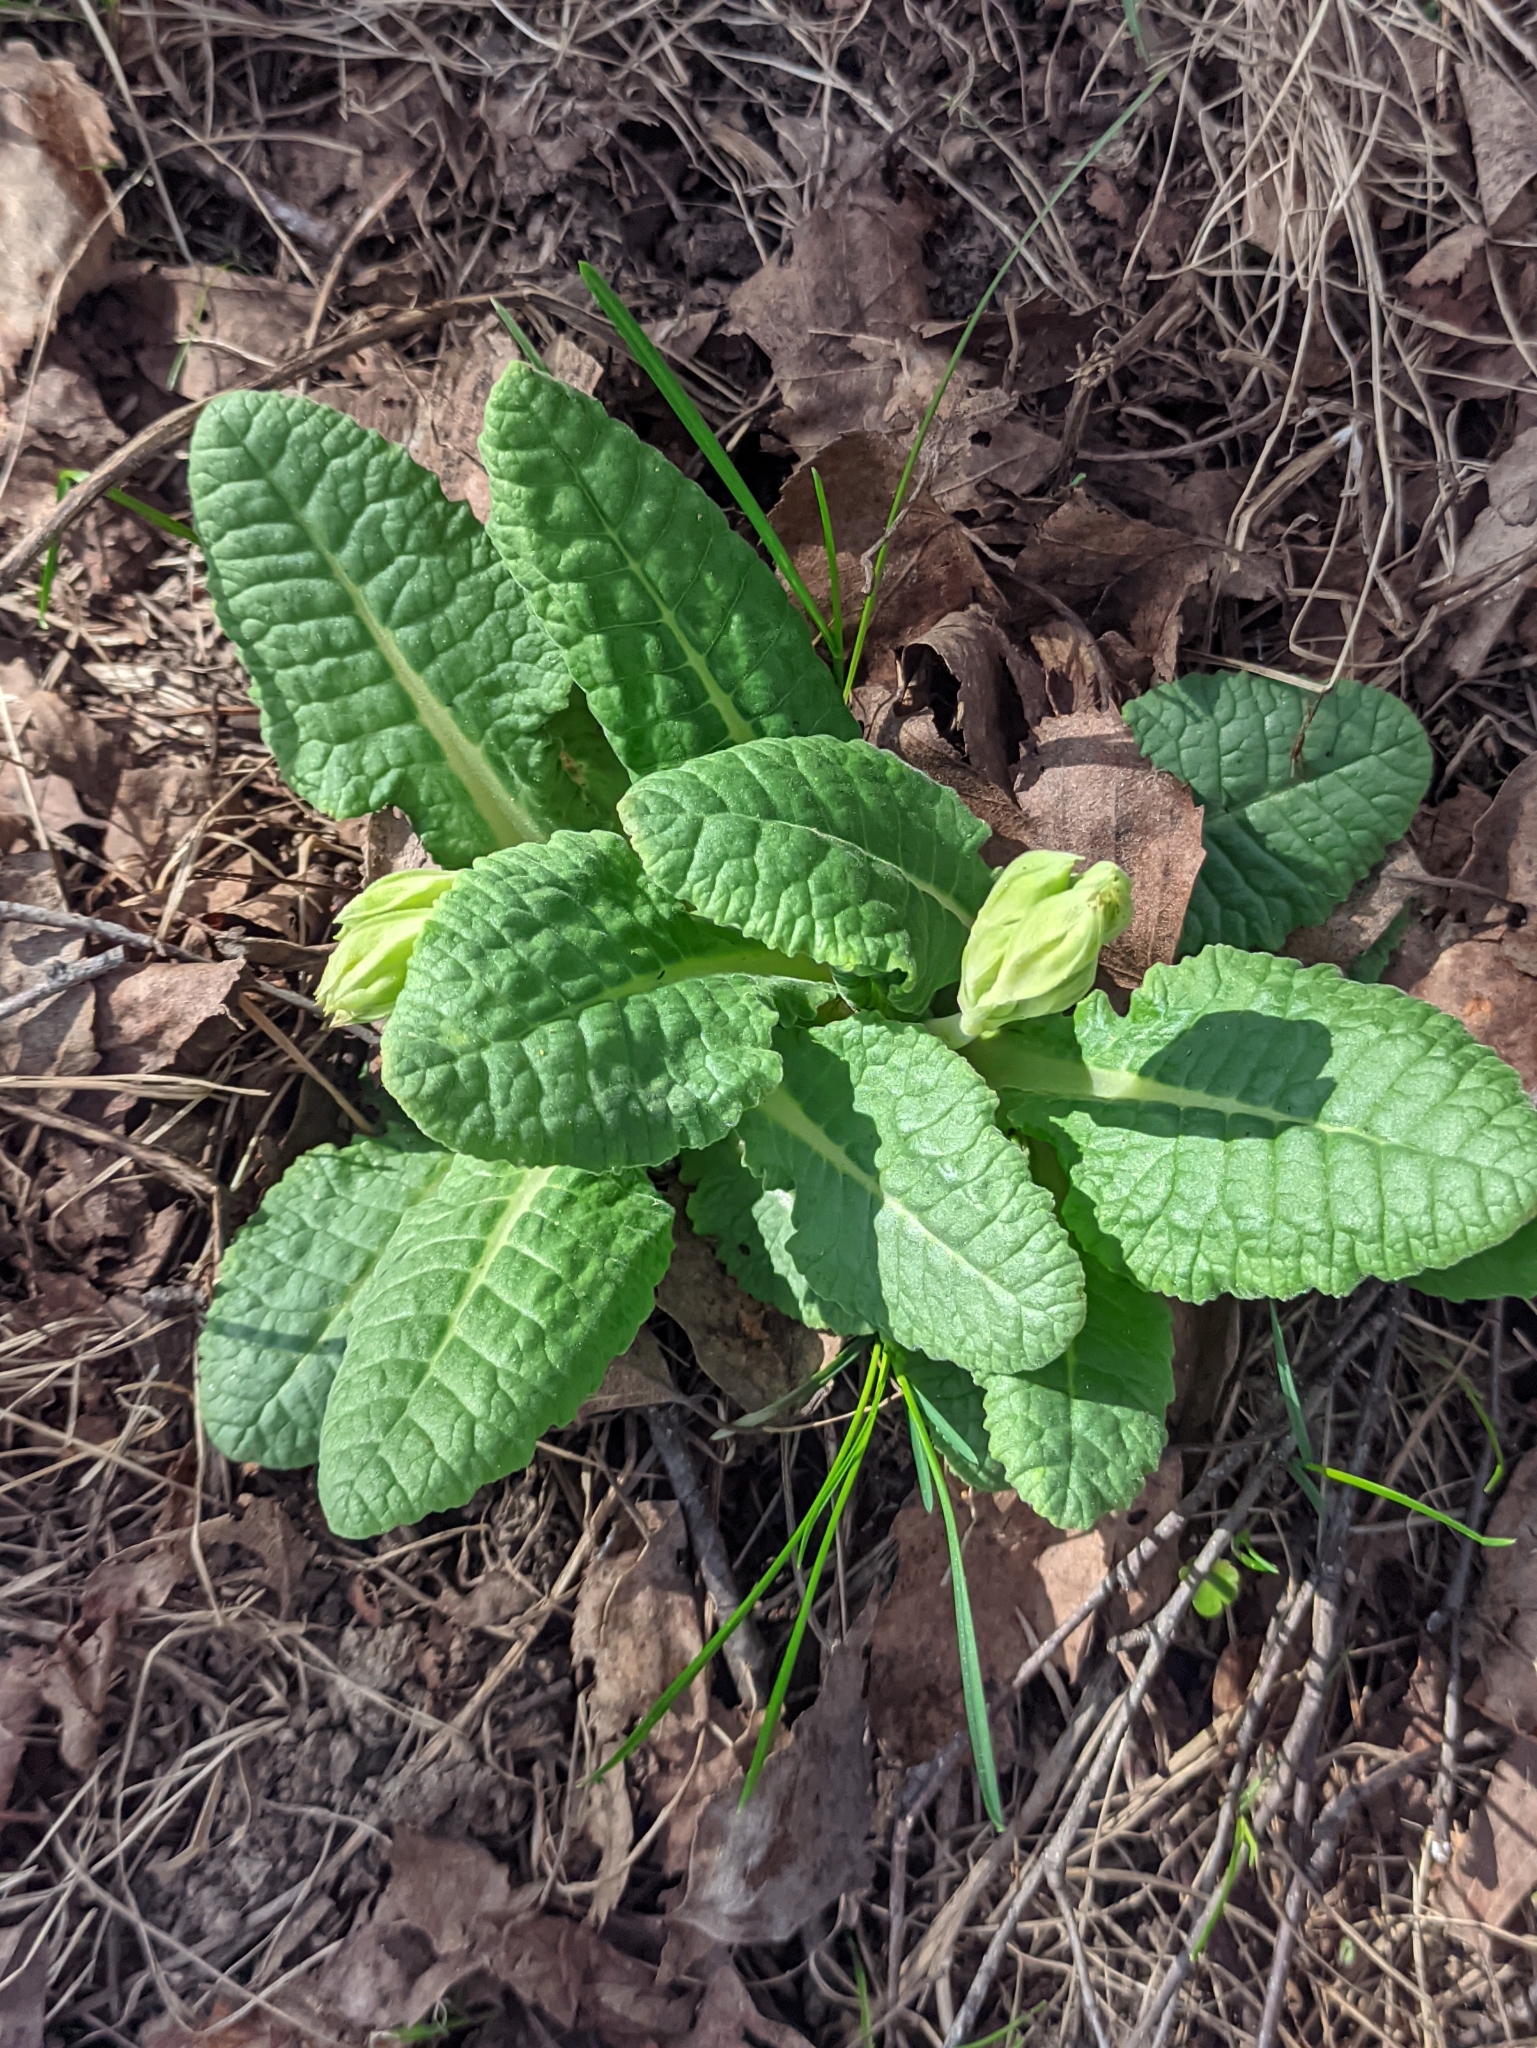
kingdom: Plantae
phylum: Tracheophyta
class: Magnoliopsida
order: Ericales
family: Primulaceae
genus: Primula
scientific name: Primula veris
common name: Cowslip
